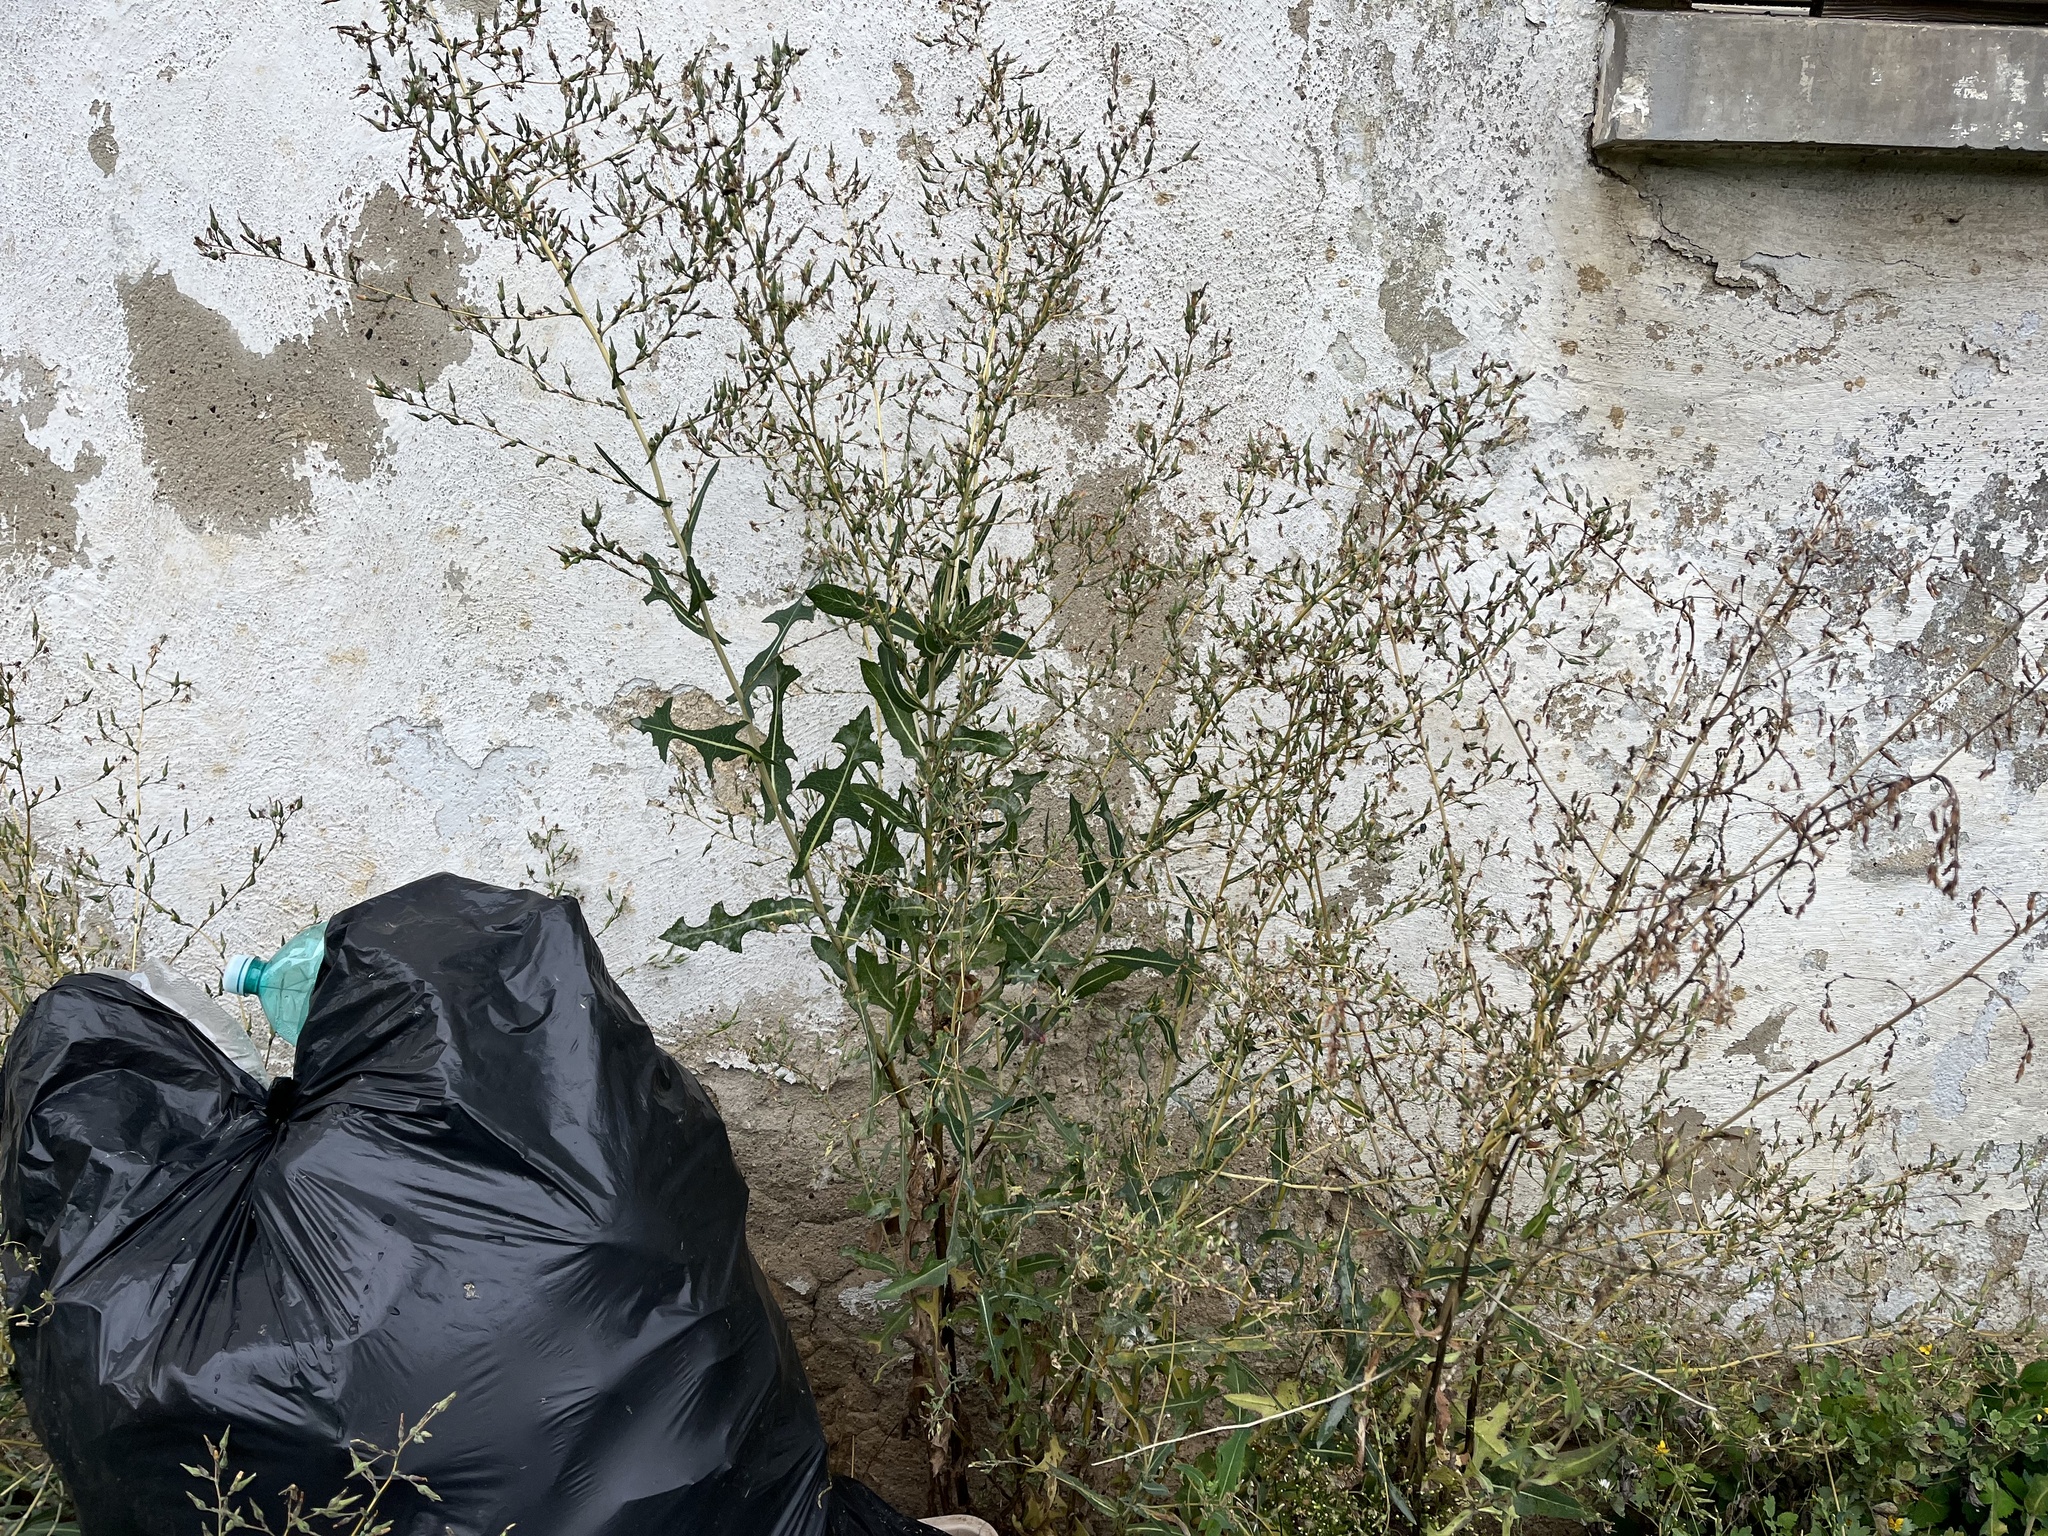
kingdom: Plantae
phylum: Tracheophyta
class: Magnoliopsida
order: Asterales
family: Asteraceae
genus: Lactuca
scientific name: Lactuca serriola
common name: Prickly lettuce
